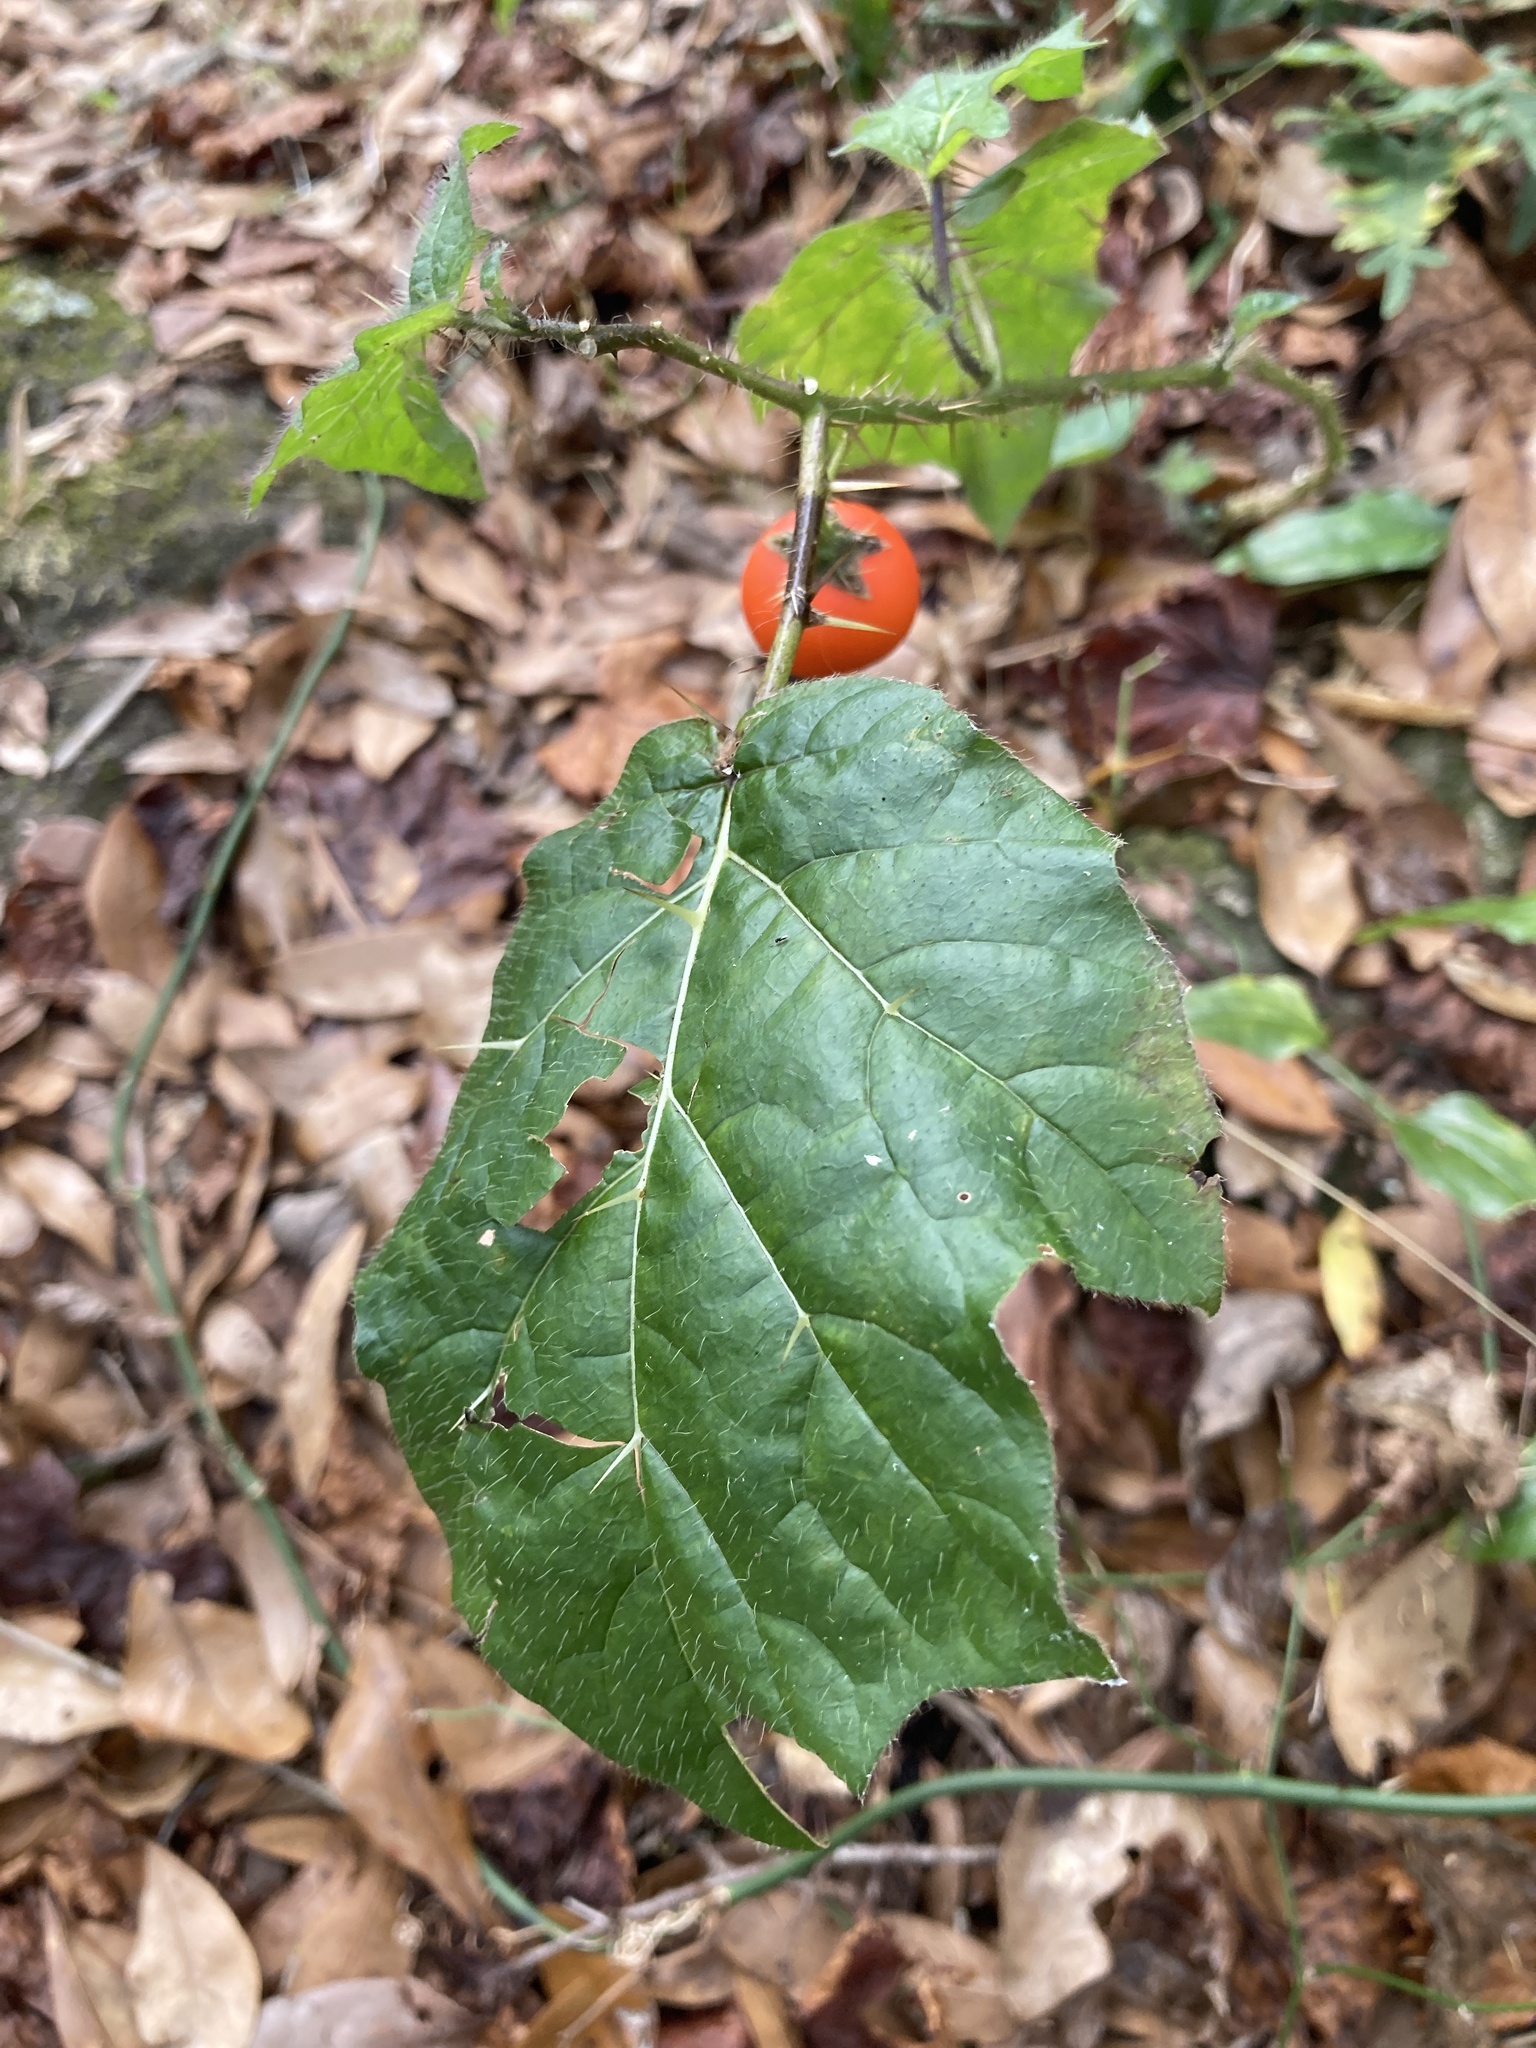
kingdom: Plantae
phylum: Tracheophyta
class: Magnoliopsida
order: Solanales
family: Solanaceae
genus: Solanum
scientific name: Solanum capsicoides
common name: Cockroach berry
